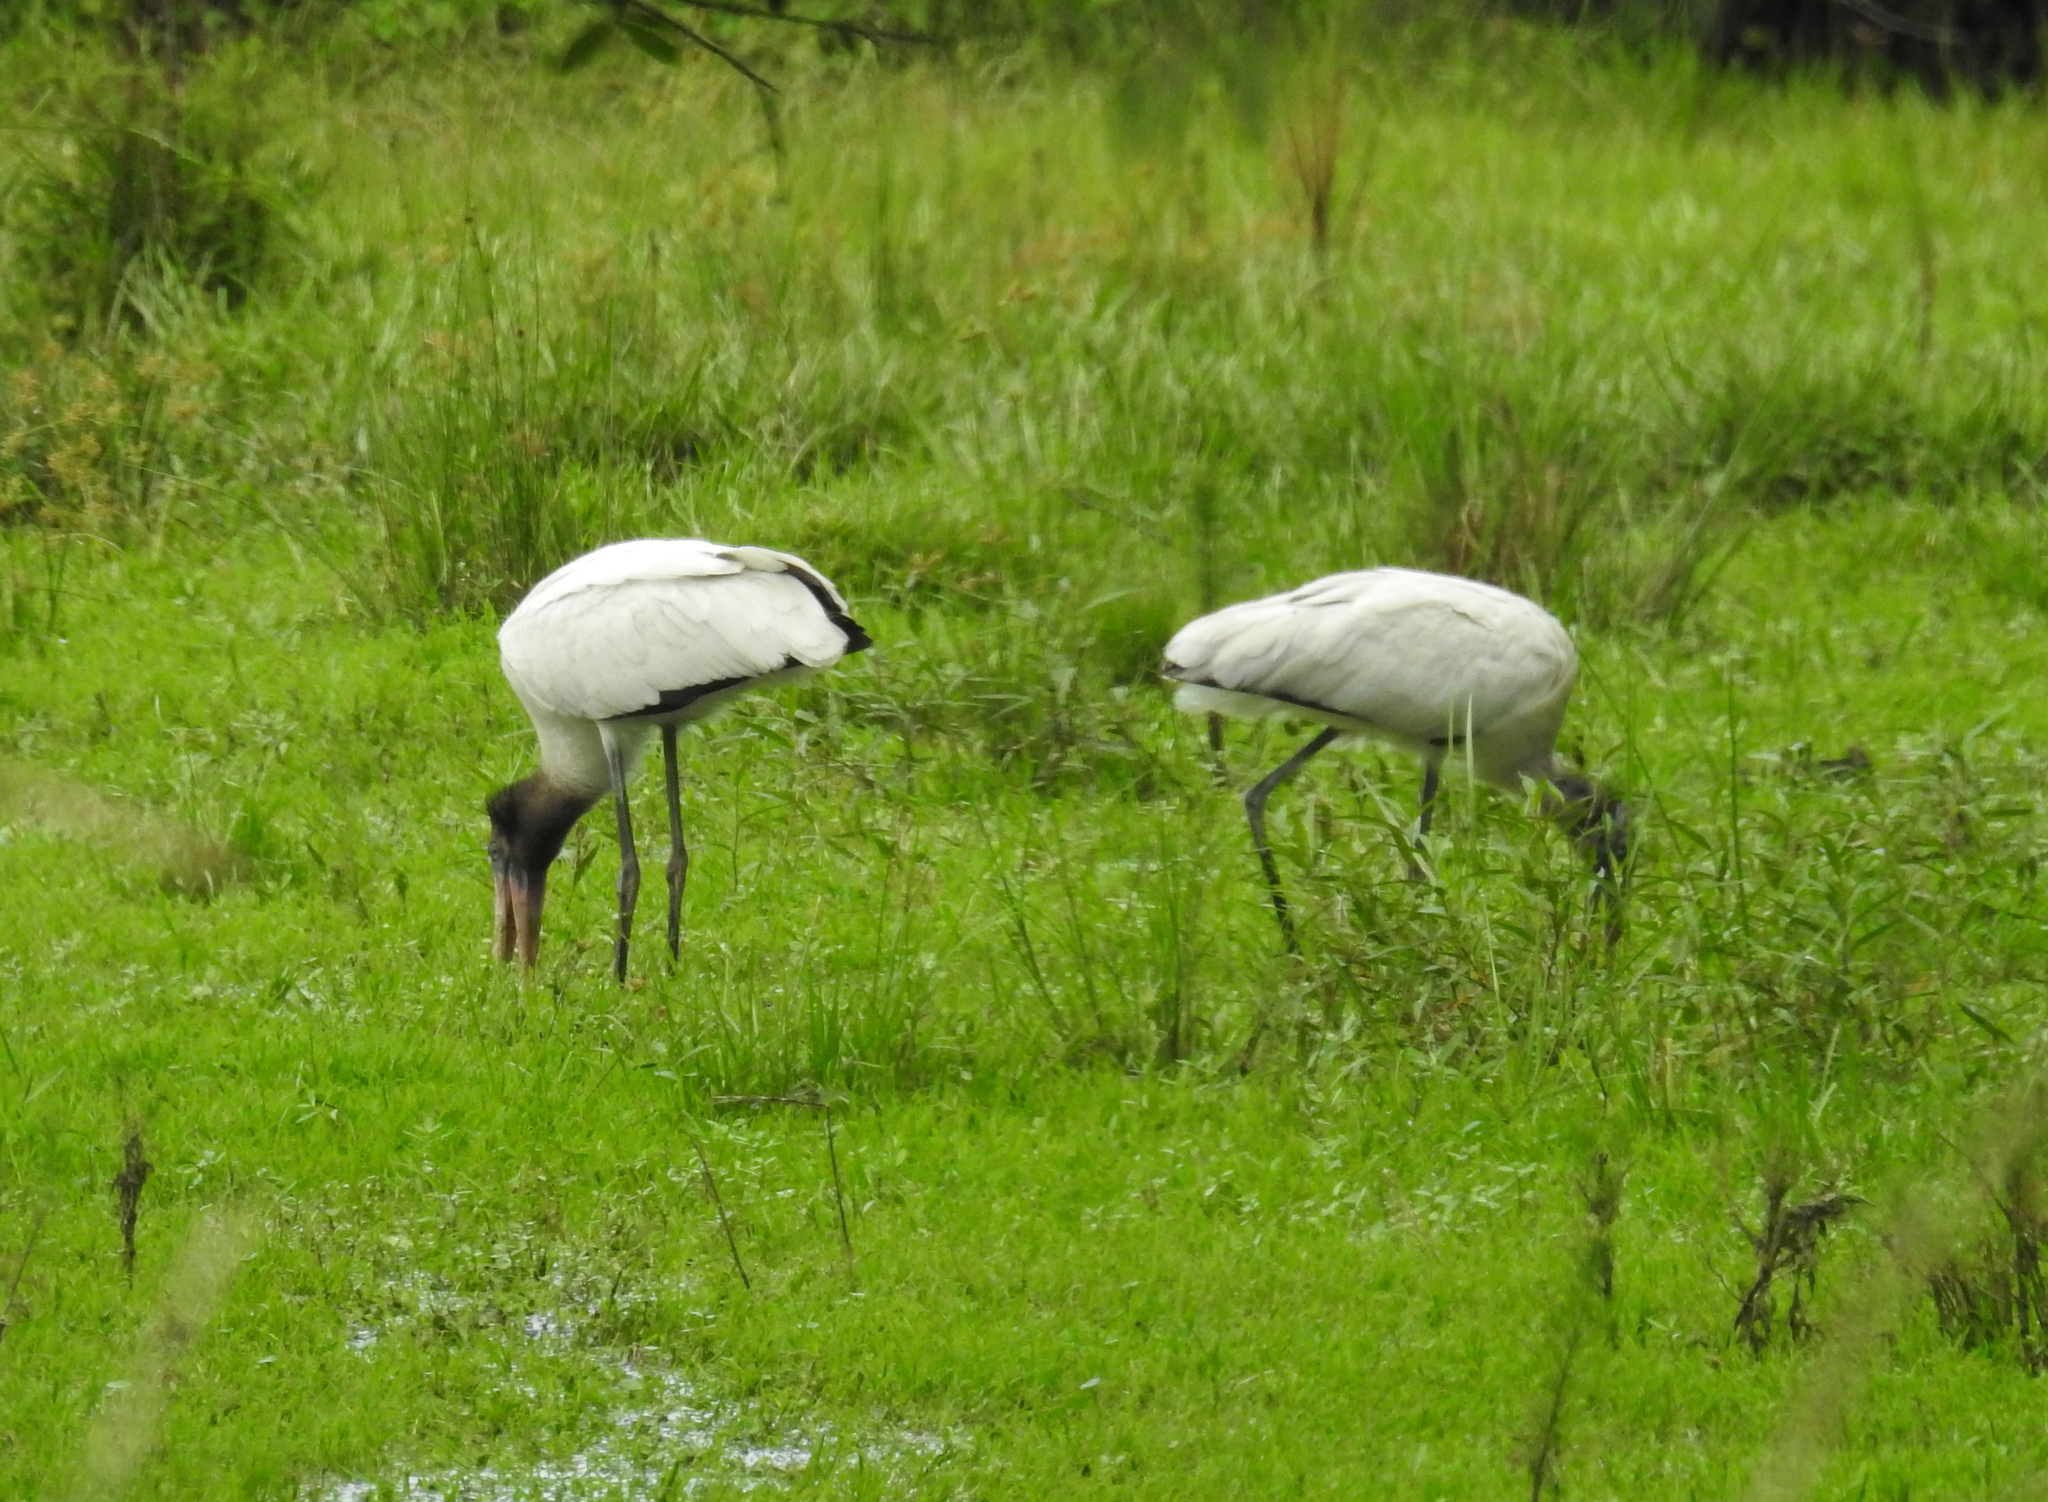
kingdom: Animalia
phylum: Chordata
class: Aves
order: Ciconiiformes
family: Ciconiidae
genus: Mycteria
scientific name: Mycteria americana
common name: Wood stork
